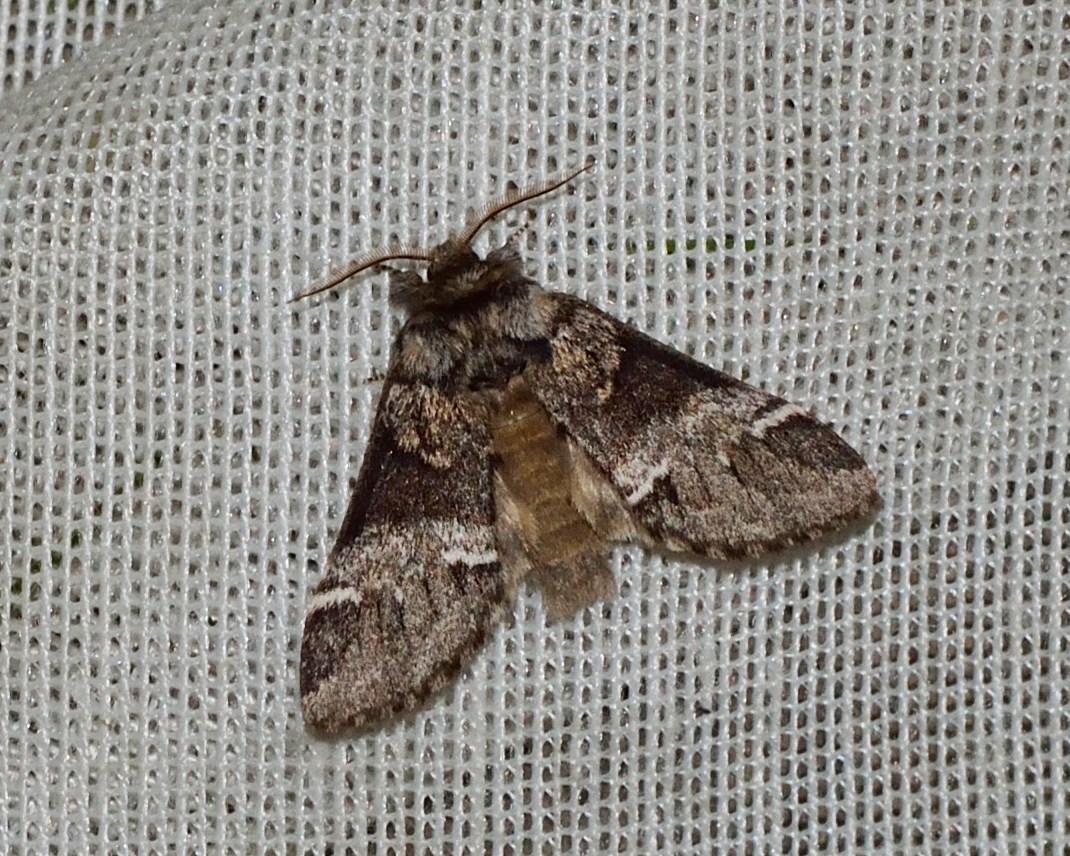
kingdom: Animalia
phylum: Arthropoda
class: Insecta
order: Lepidoptera
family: Notodontidae
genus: Drymonia
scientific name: Drymonia dodonaea
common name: Marbled brown
